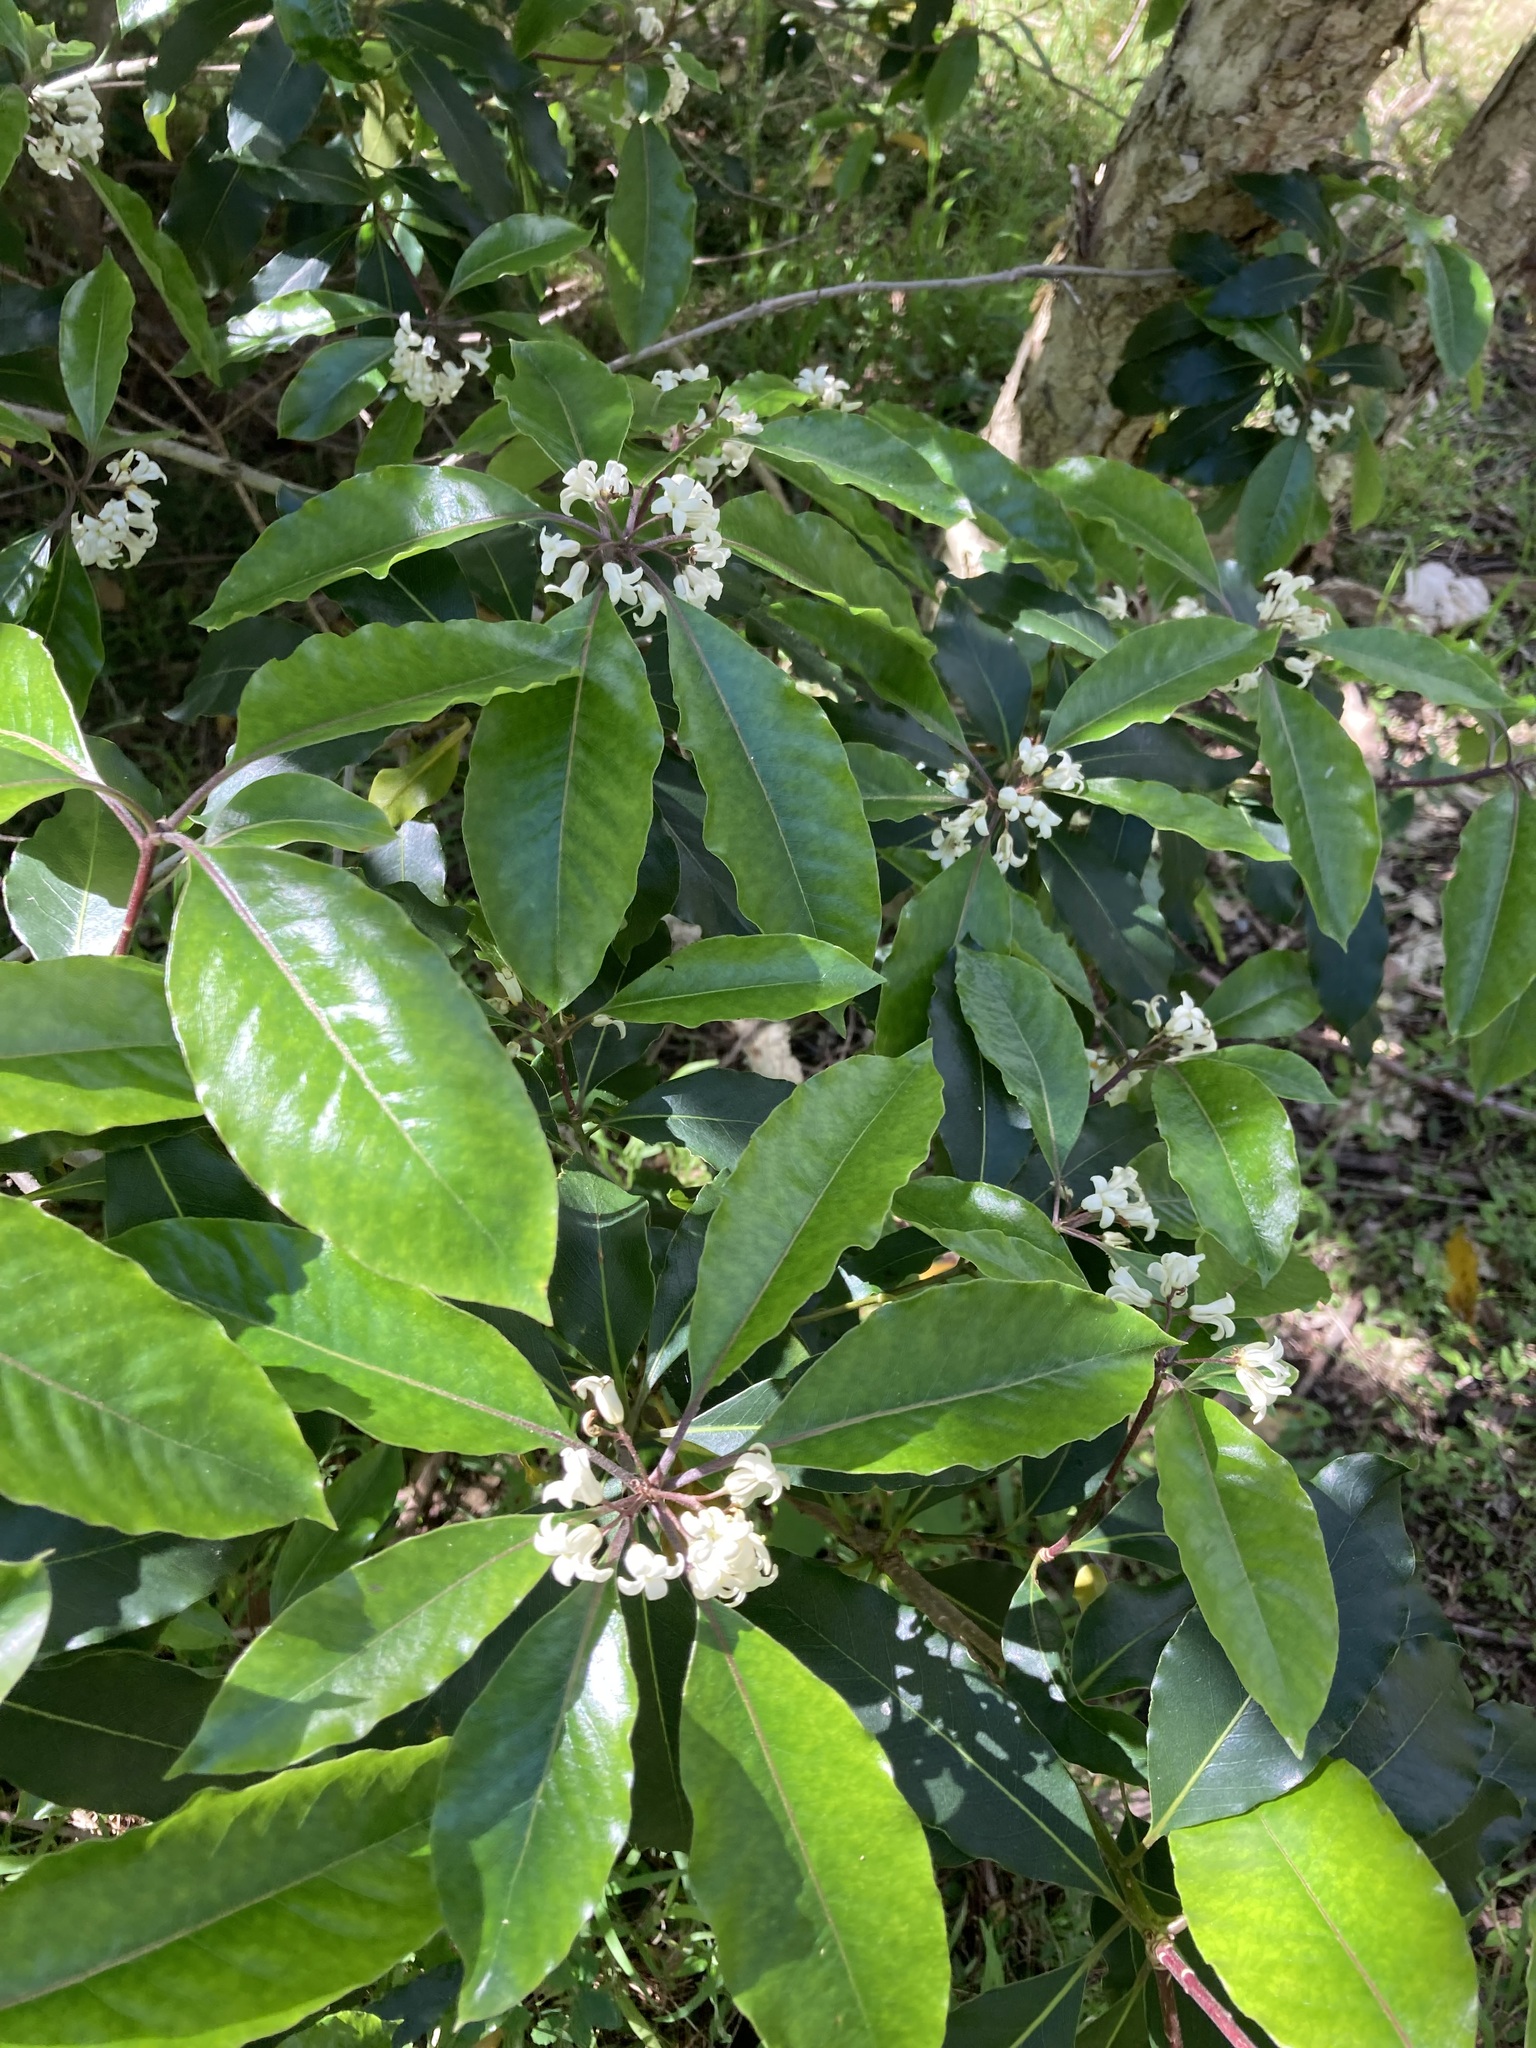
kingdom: Plantae
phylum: Tracheophyta
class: Magnoliopsida
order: Apiales
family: Pittosporaceae
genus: Pittosporum
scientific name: Pittosporum undulatum
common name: Australian cheesewood
